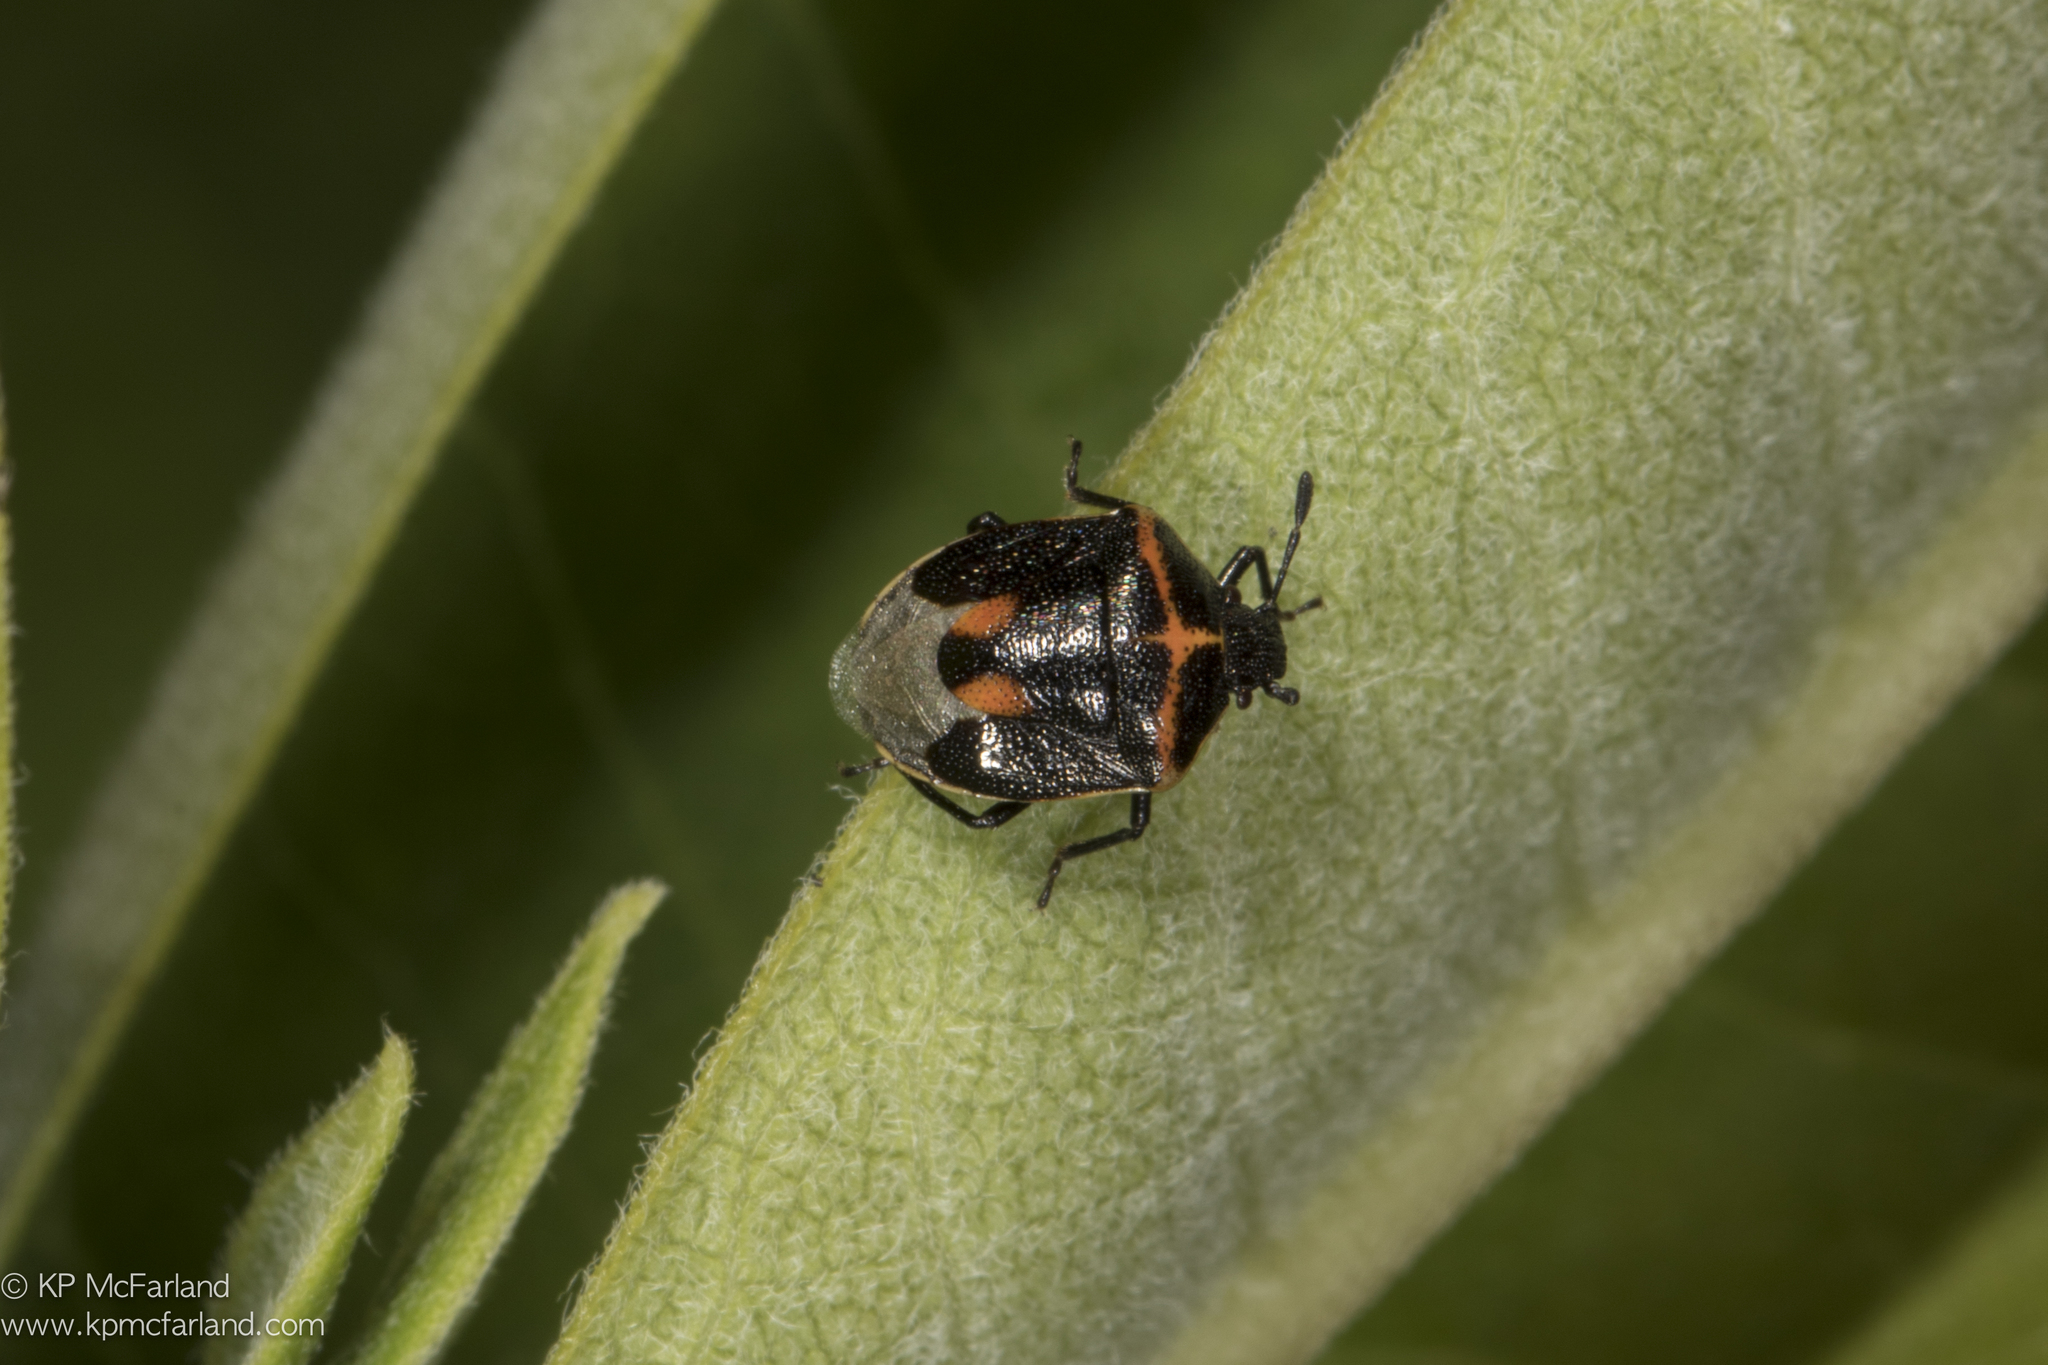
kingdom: Animalia
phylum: Arthropoda
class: Insecta
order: Hemiptera
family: Pentatomidae
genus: Cosmopepla
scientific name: Cosmopepla lintneriana
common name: Twice-stabbed stink bug
